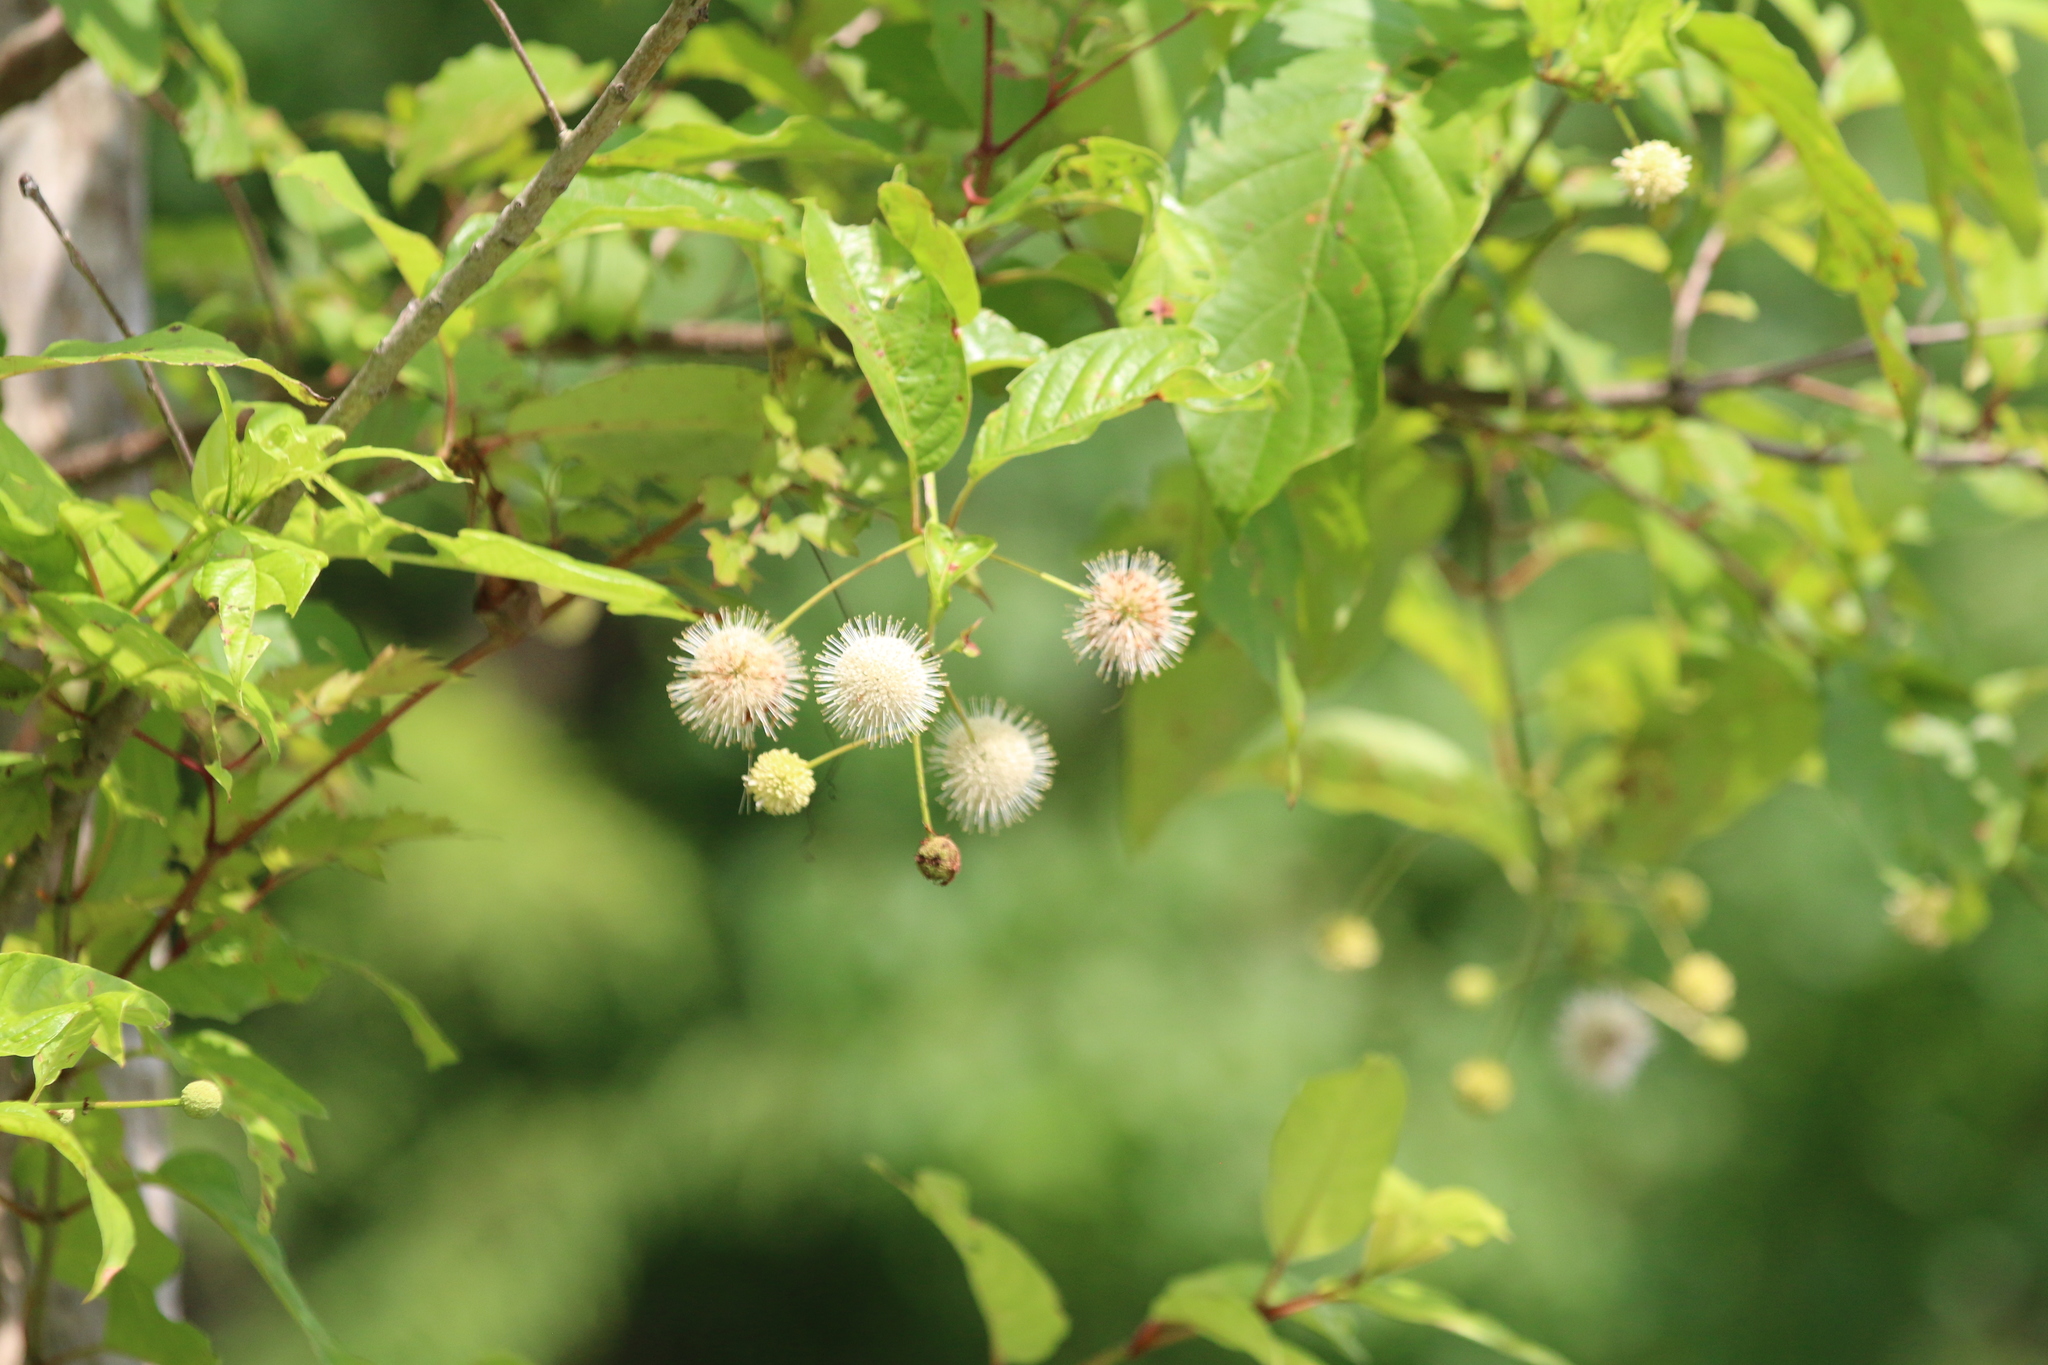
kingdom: Plantae
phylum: Tracheophyta
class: Magnoliopsida
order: Gentianales
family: Rubiaceae
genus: Cephalanthus
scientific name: Cephalanthus occidentalis
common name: Button-willow
